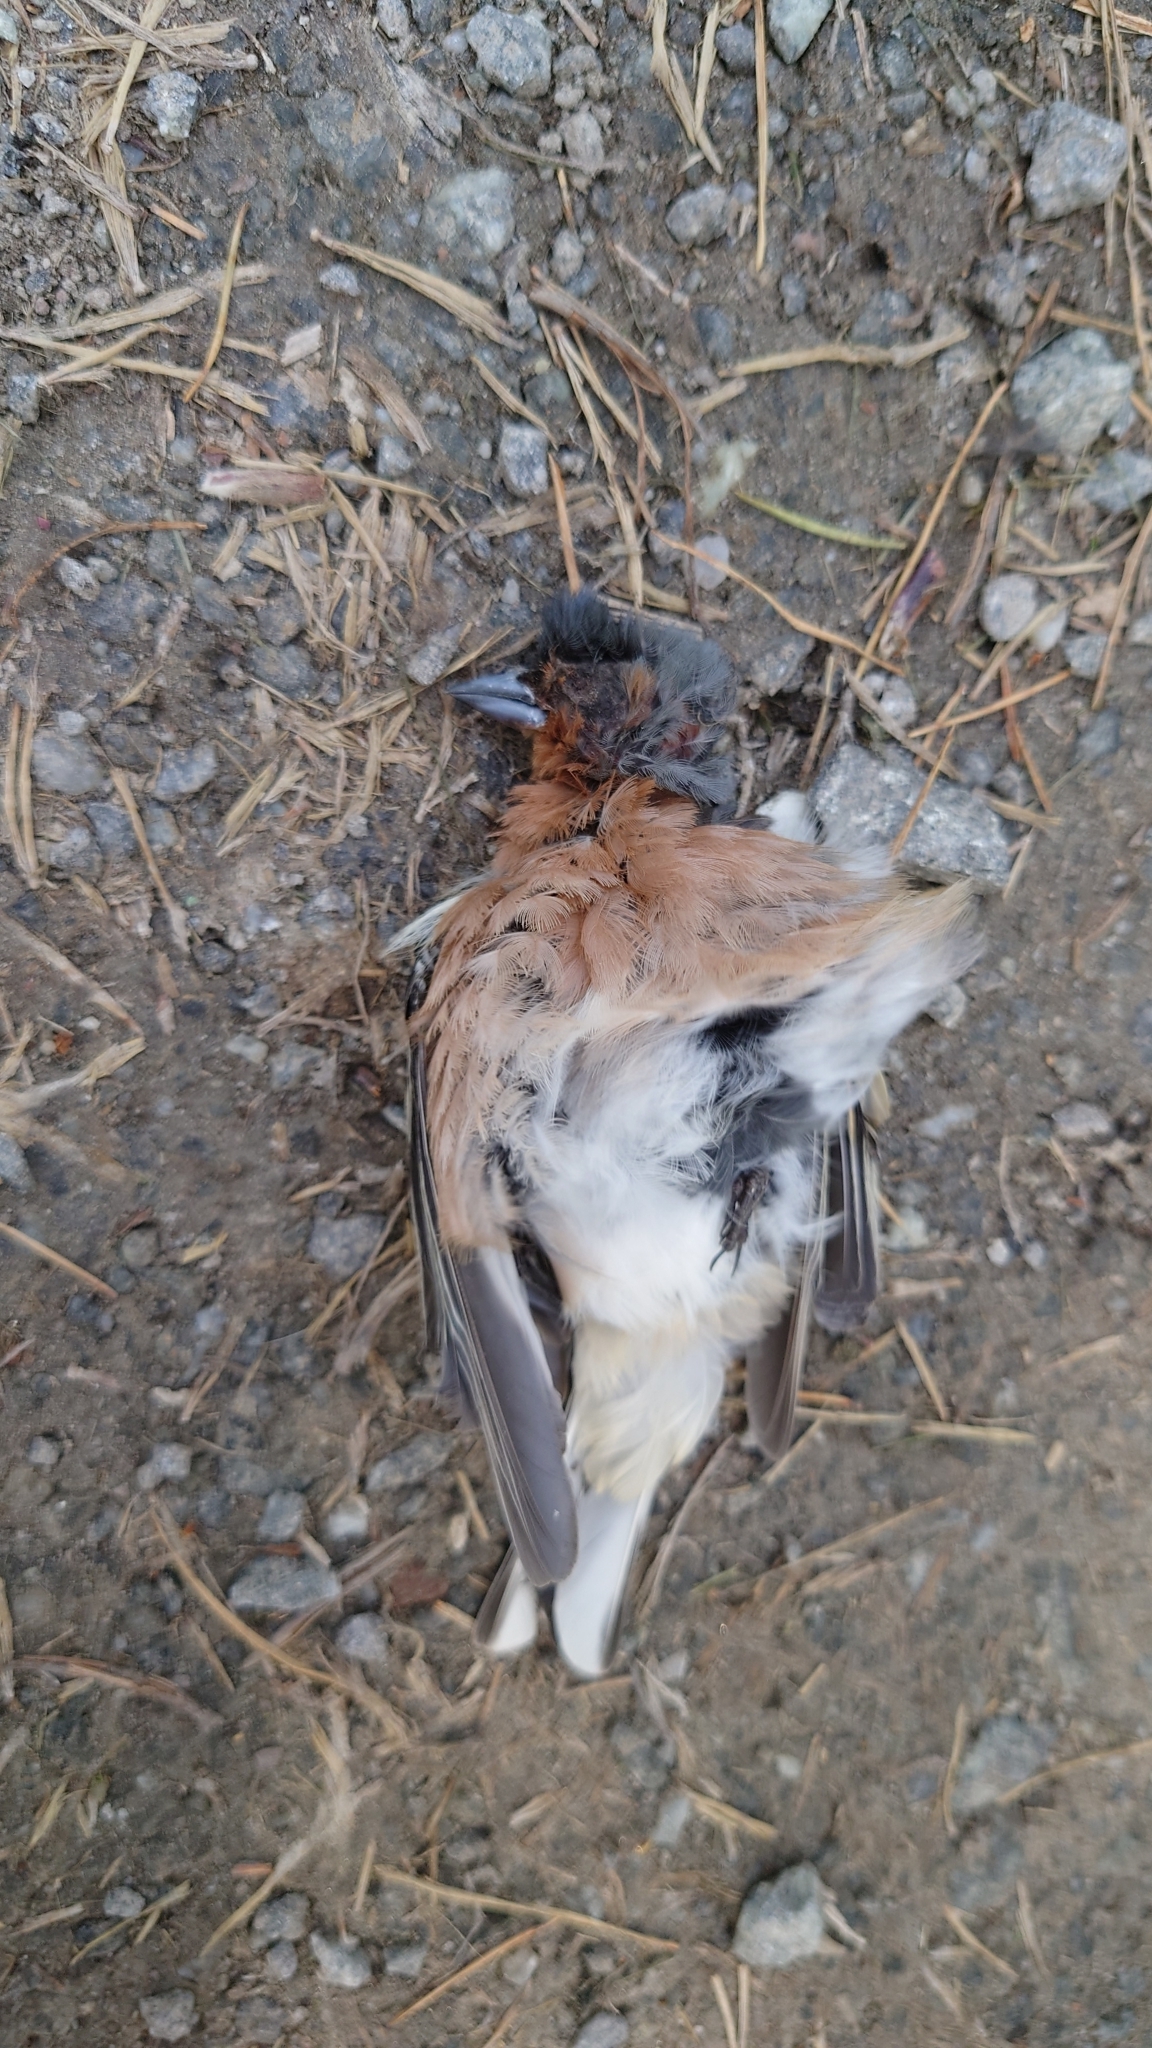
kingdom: Animalia
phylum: Chordata
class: Aves
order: Passeriformes
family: Fringillidae
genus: Fringilla
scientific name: Fringilla coelebs
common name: Common chaffinch
